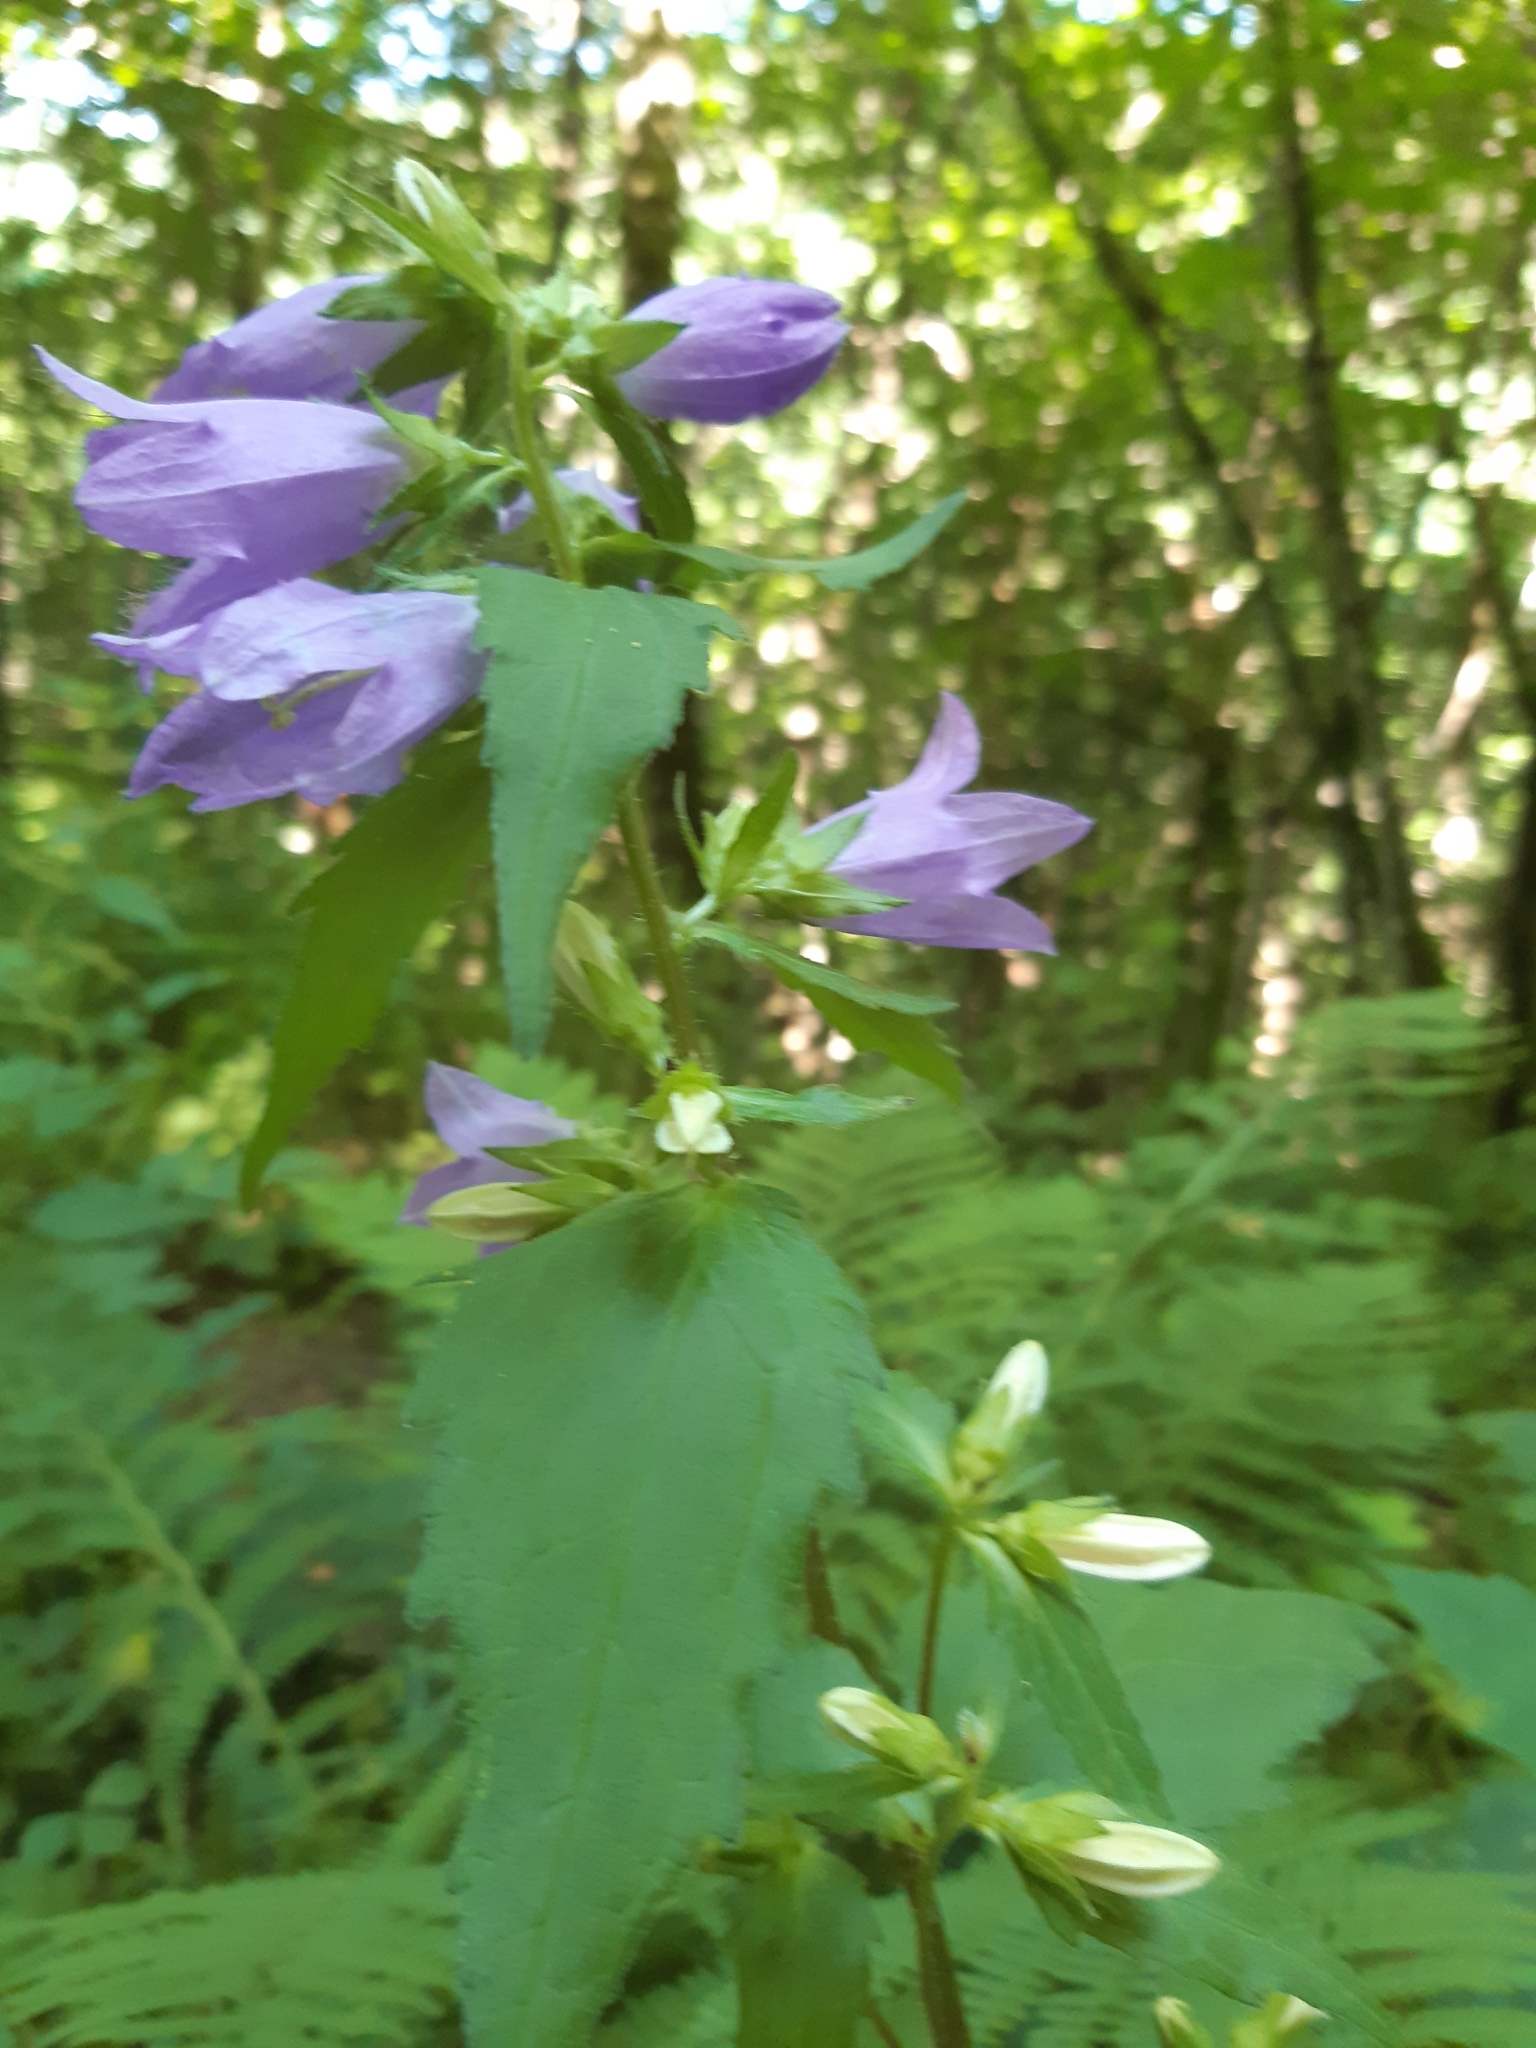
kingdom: Plantae
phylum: Tracheophyta
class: Magnoliopsida
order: Asterales
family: Campanulaceae
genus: Campanula
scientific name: Campanula trachelium
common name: Nettle-leaved bellflower
